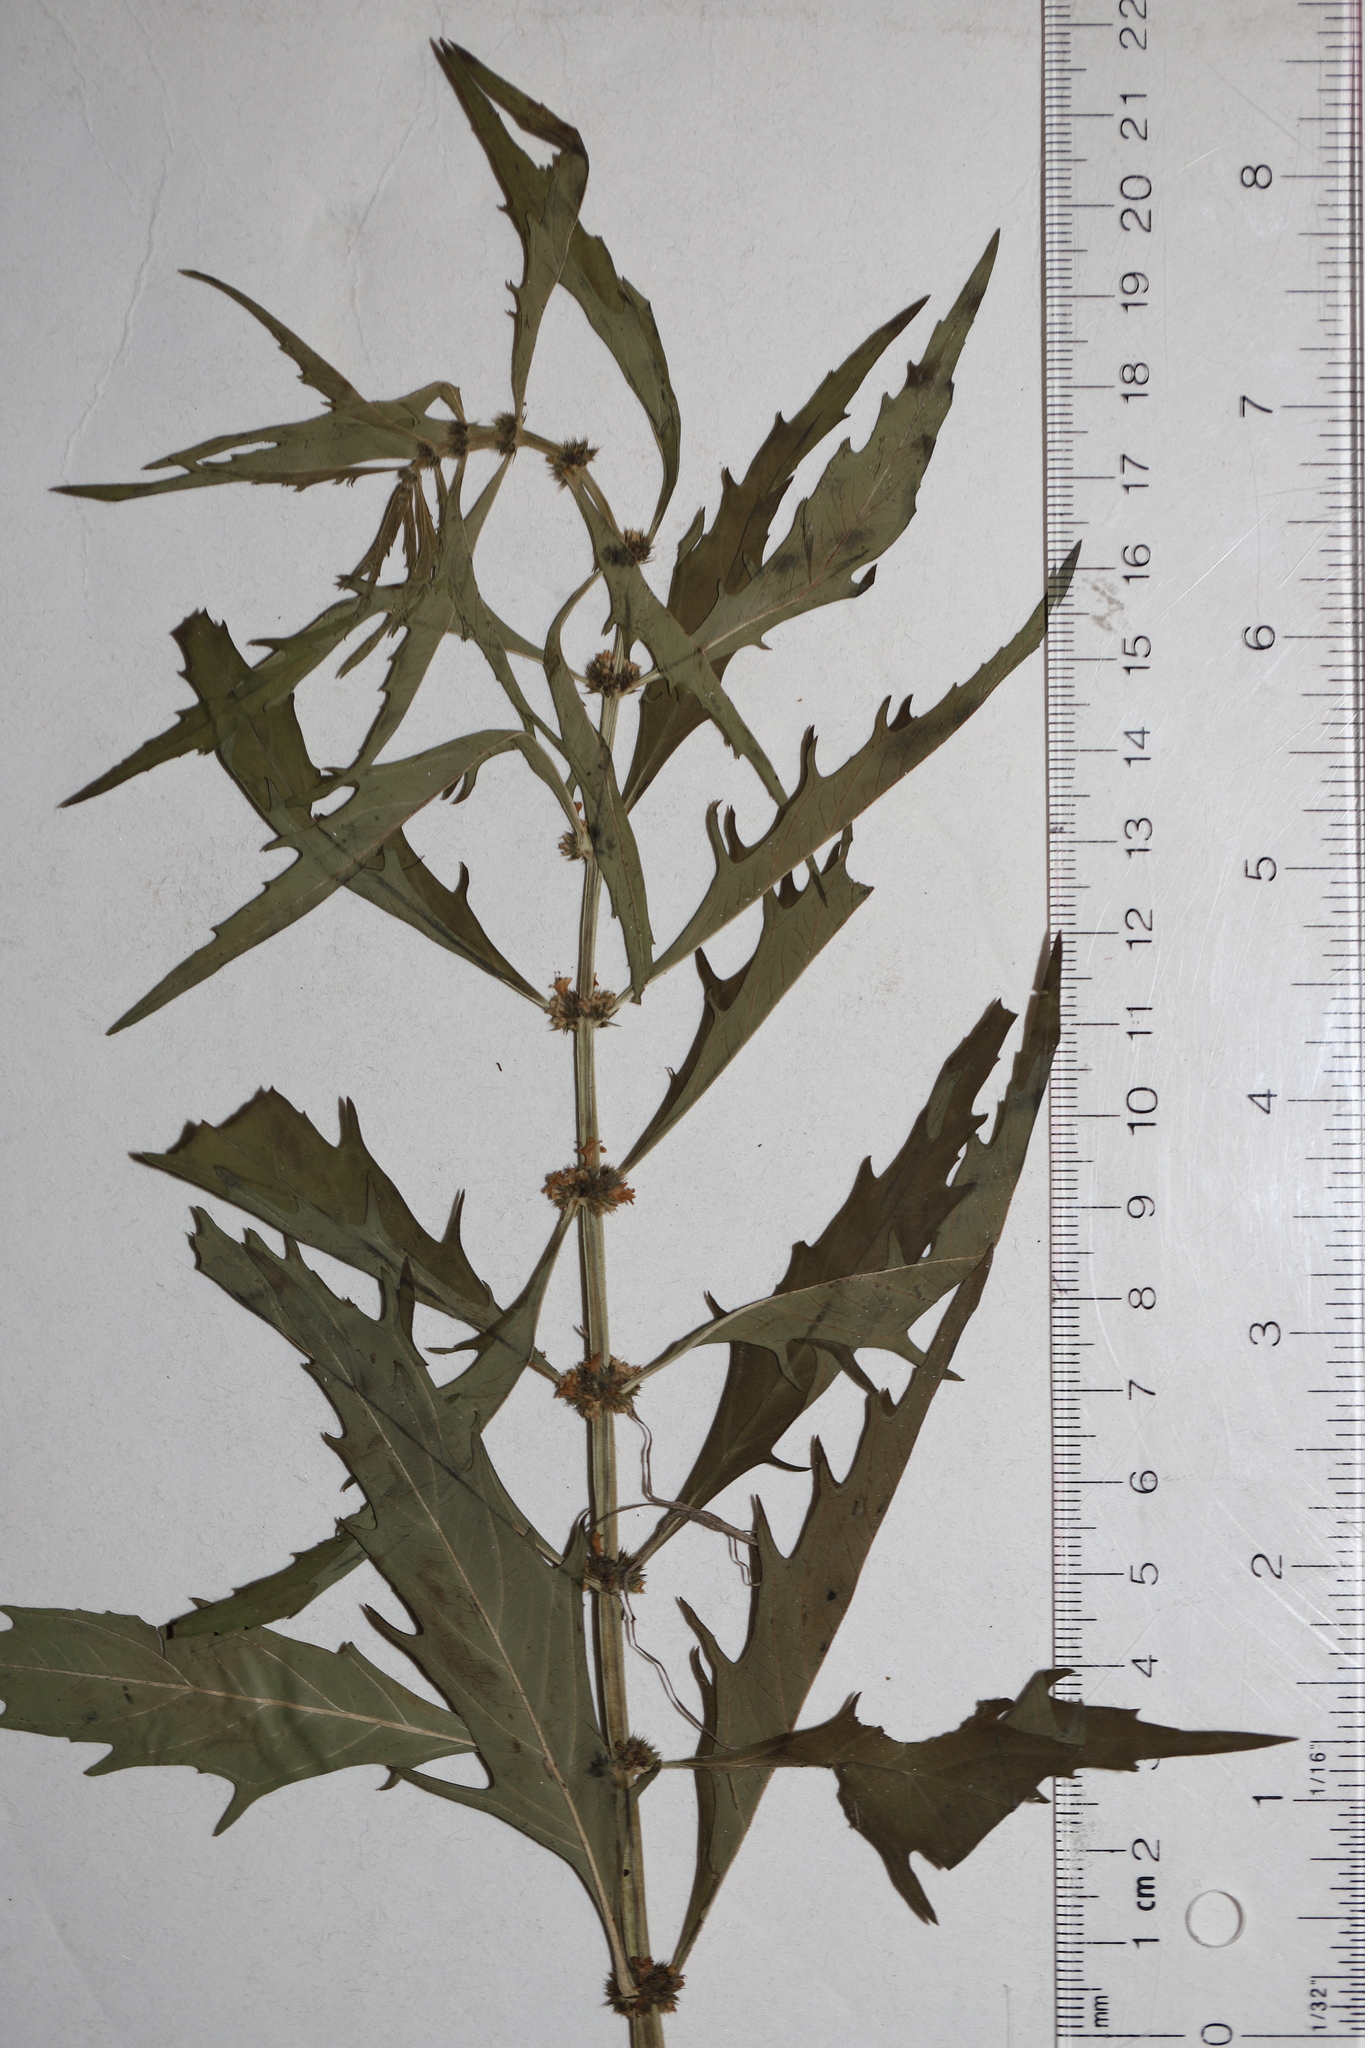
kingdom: Plantae
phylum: Tracheophyta
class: Magnoliopsida
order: Lamiales
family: Lamiaceae
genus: Lycopus
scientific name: Lycopus americanus
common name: American bugleweed
